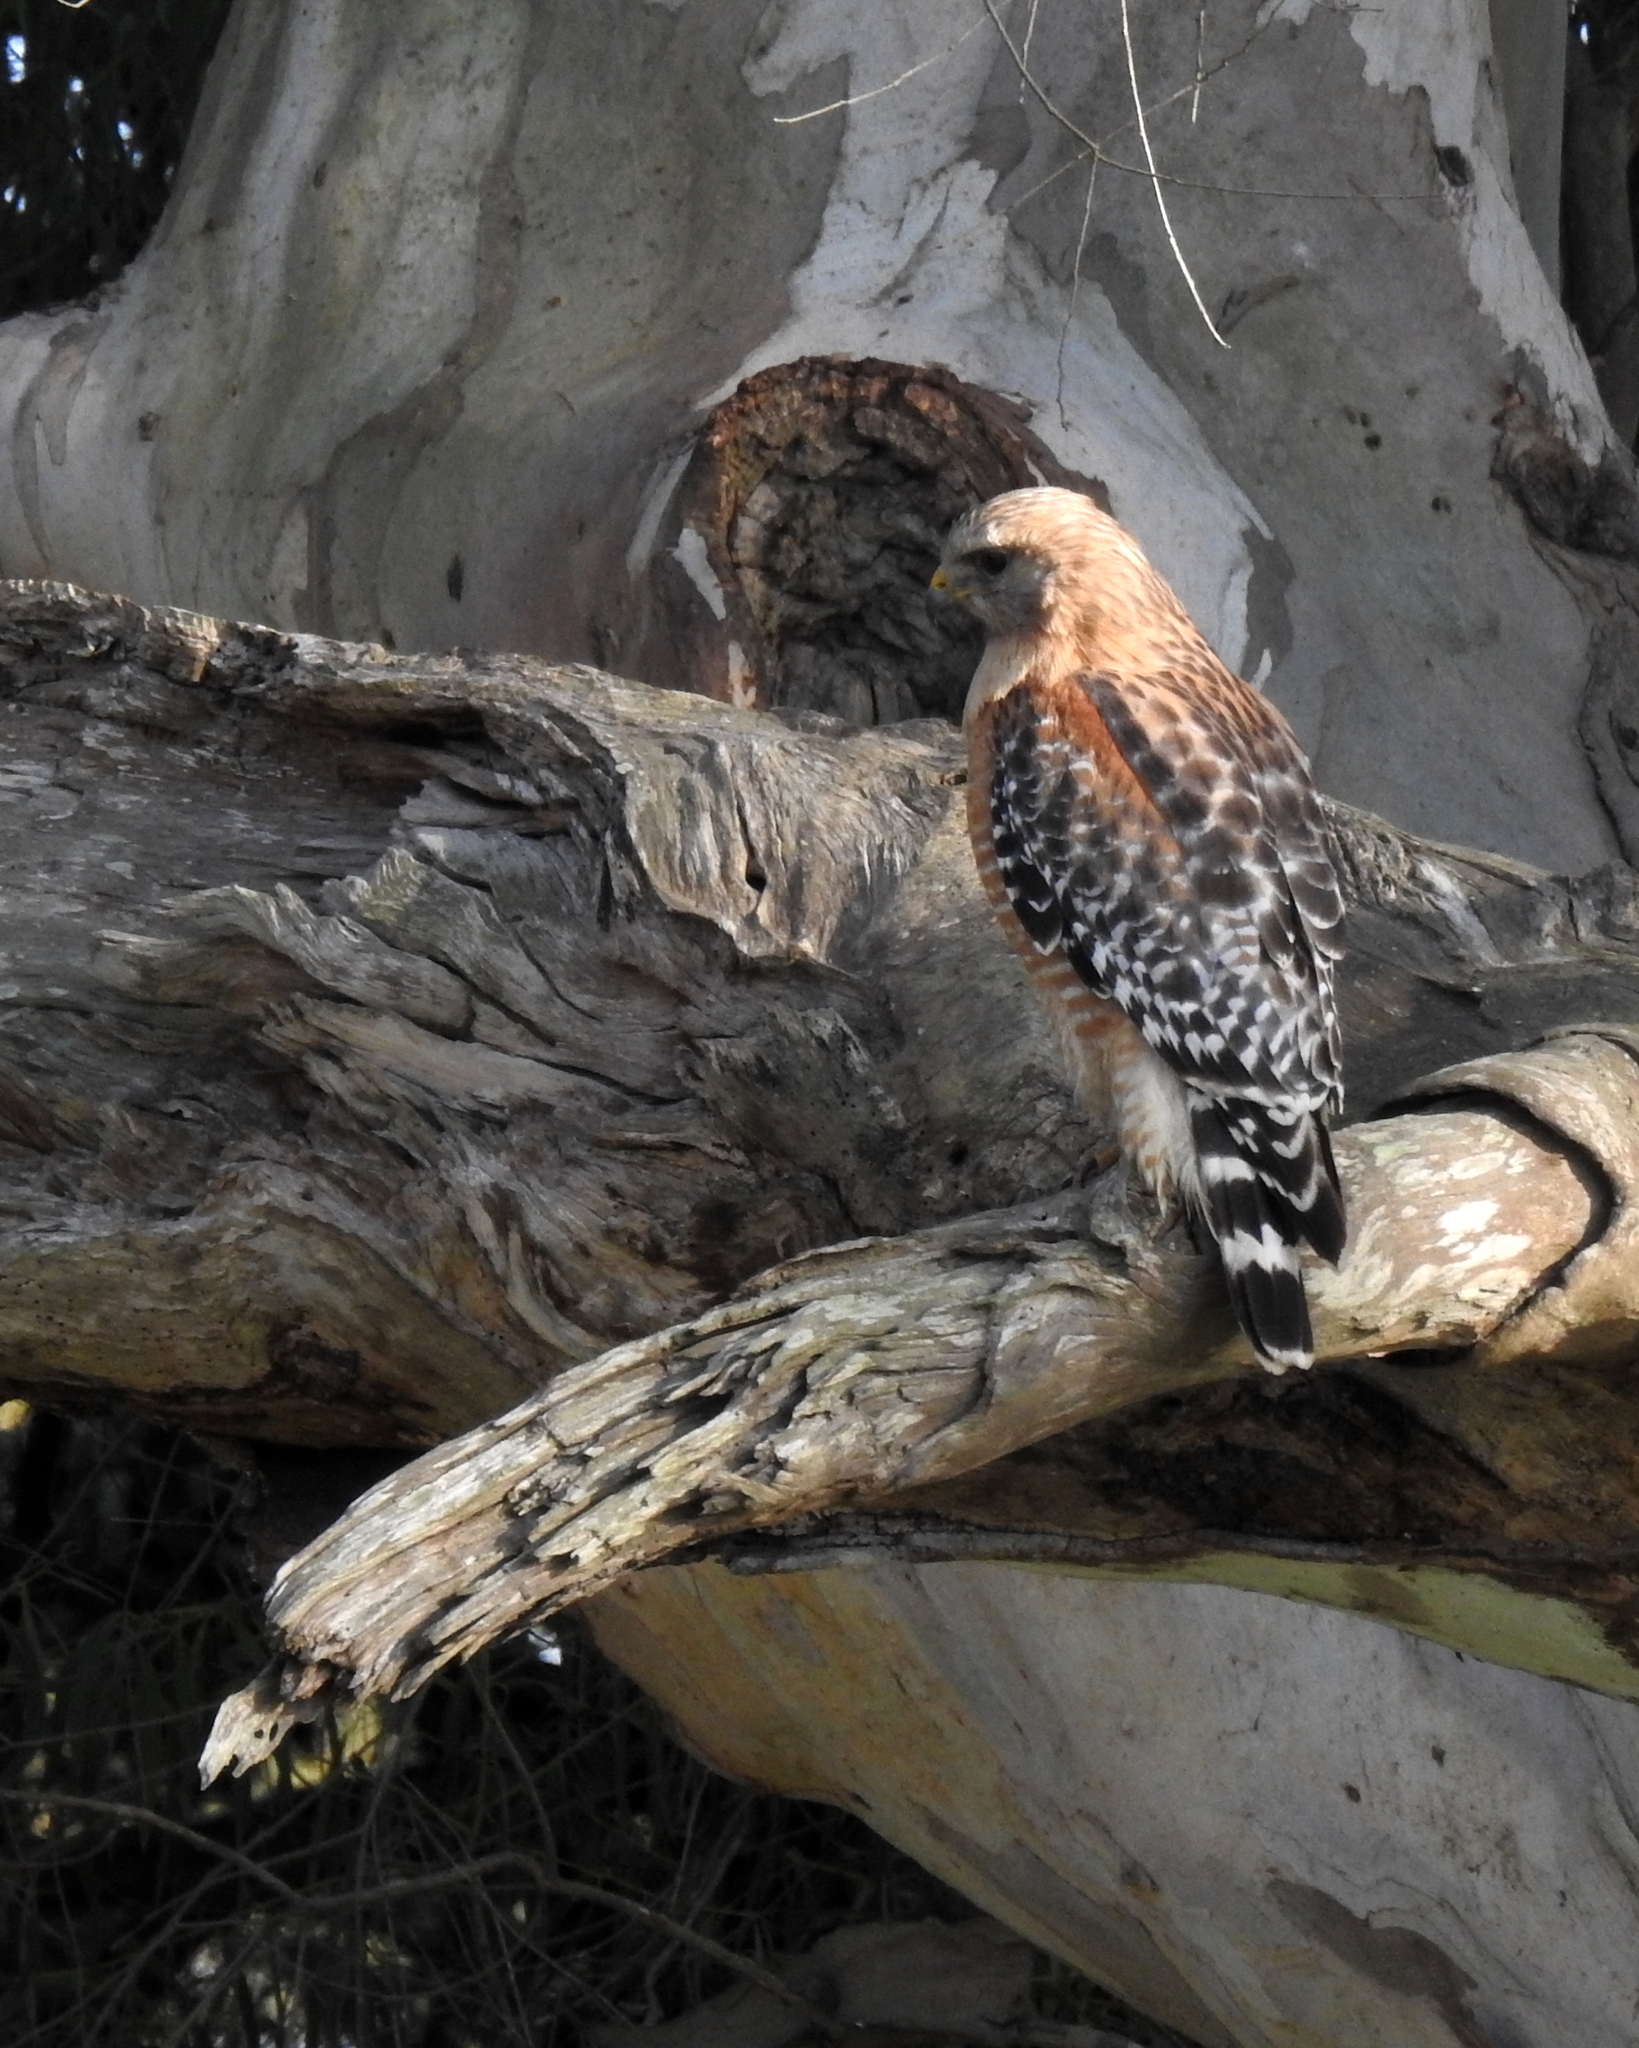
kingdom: Animalia
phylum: Chordata
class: Aves
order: Accipitriformes
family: Accipitridae
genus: Buteo
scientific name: Buteo lineatus
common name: Red-shouldered hawk
